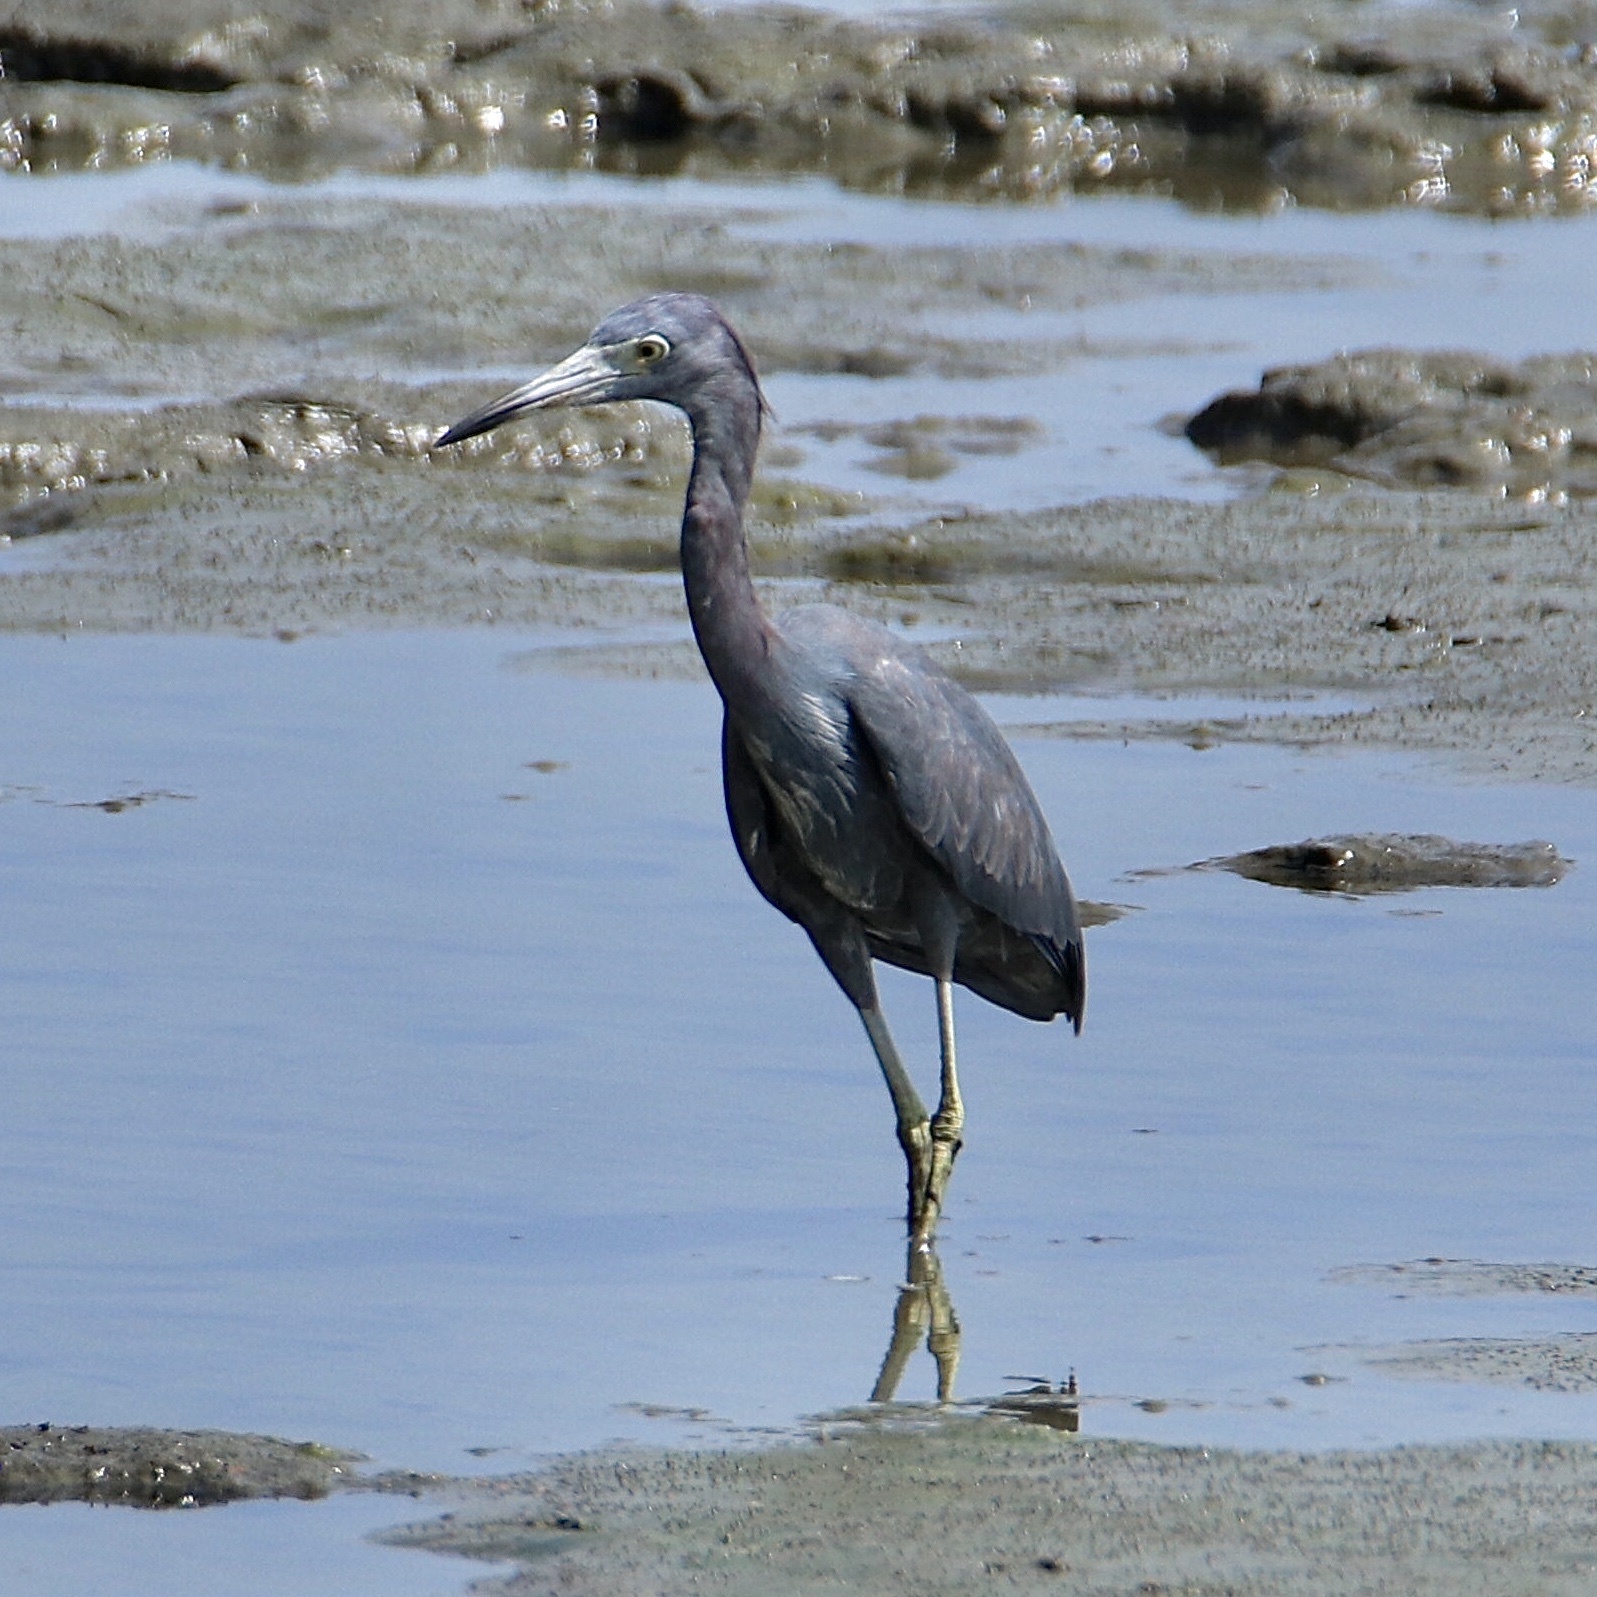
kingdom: Animalia
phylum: Chordata
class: Aves
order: Pelecaniformes
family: Ardeidae
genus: Egretta
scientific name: Egretta caerulea
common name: Little blue heron
